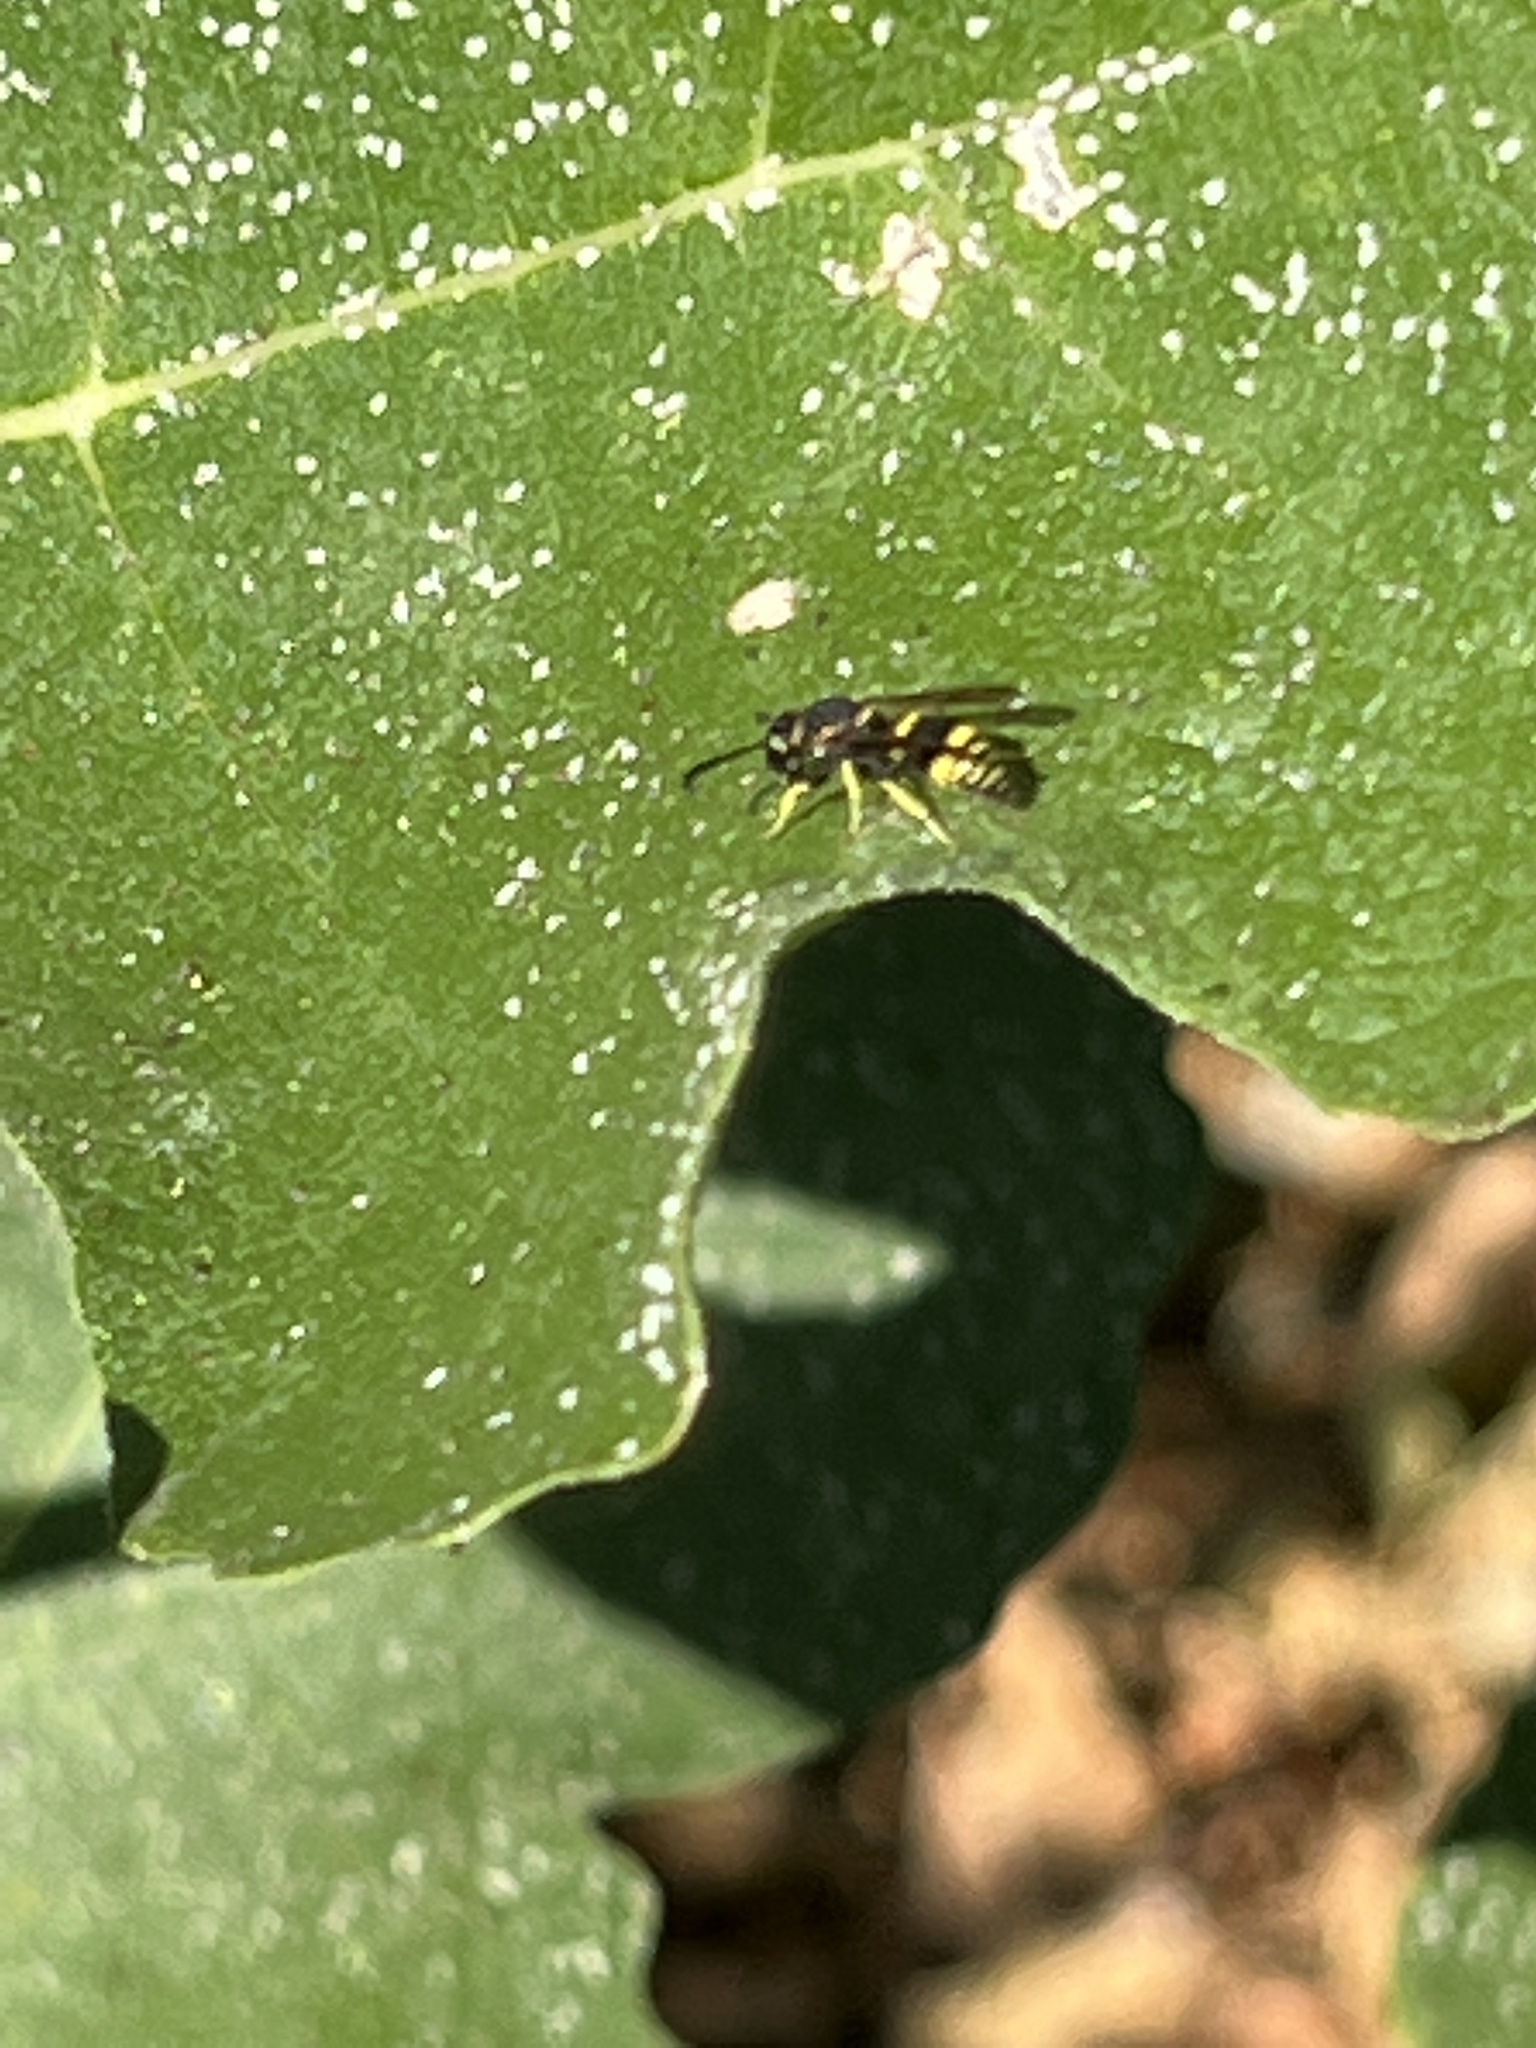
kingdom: Animalia
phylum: Arthropoda
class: Insecta
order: Hymenoptera
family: Vespidae
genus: Ancistrocerus
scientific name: Ancistrocerus
